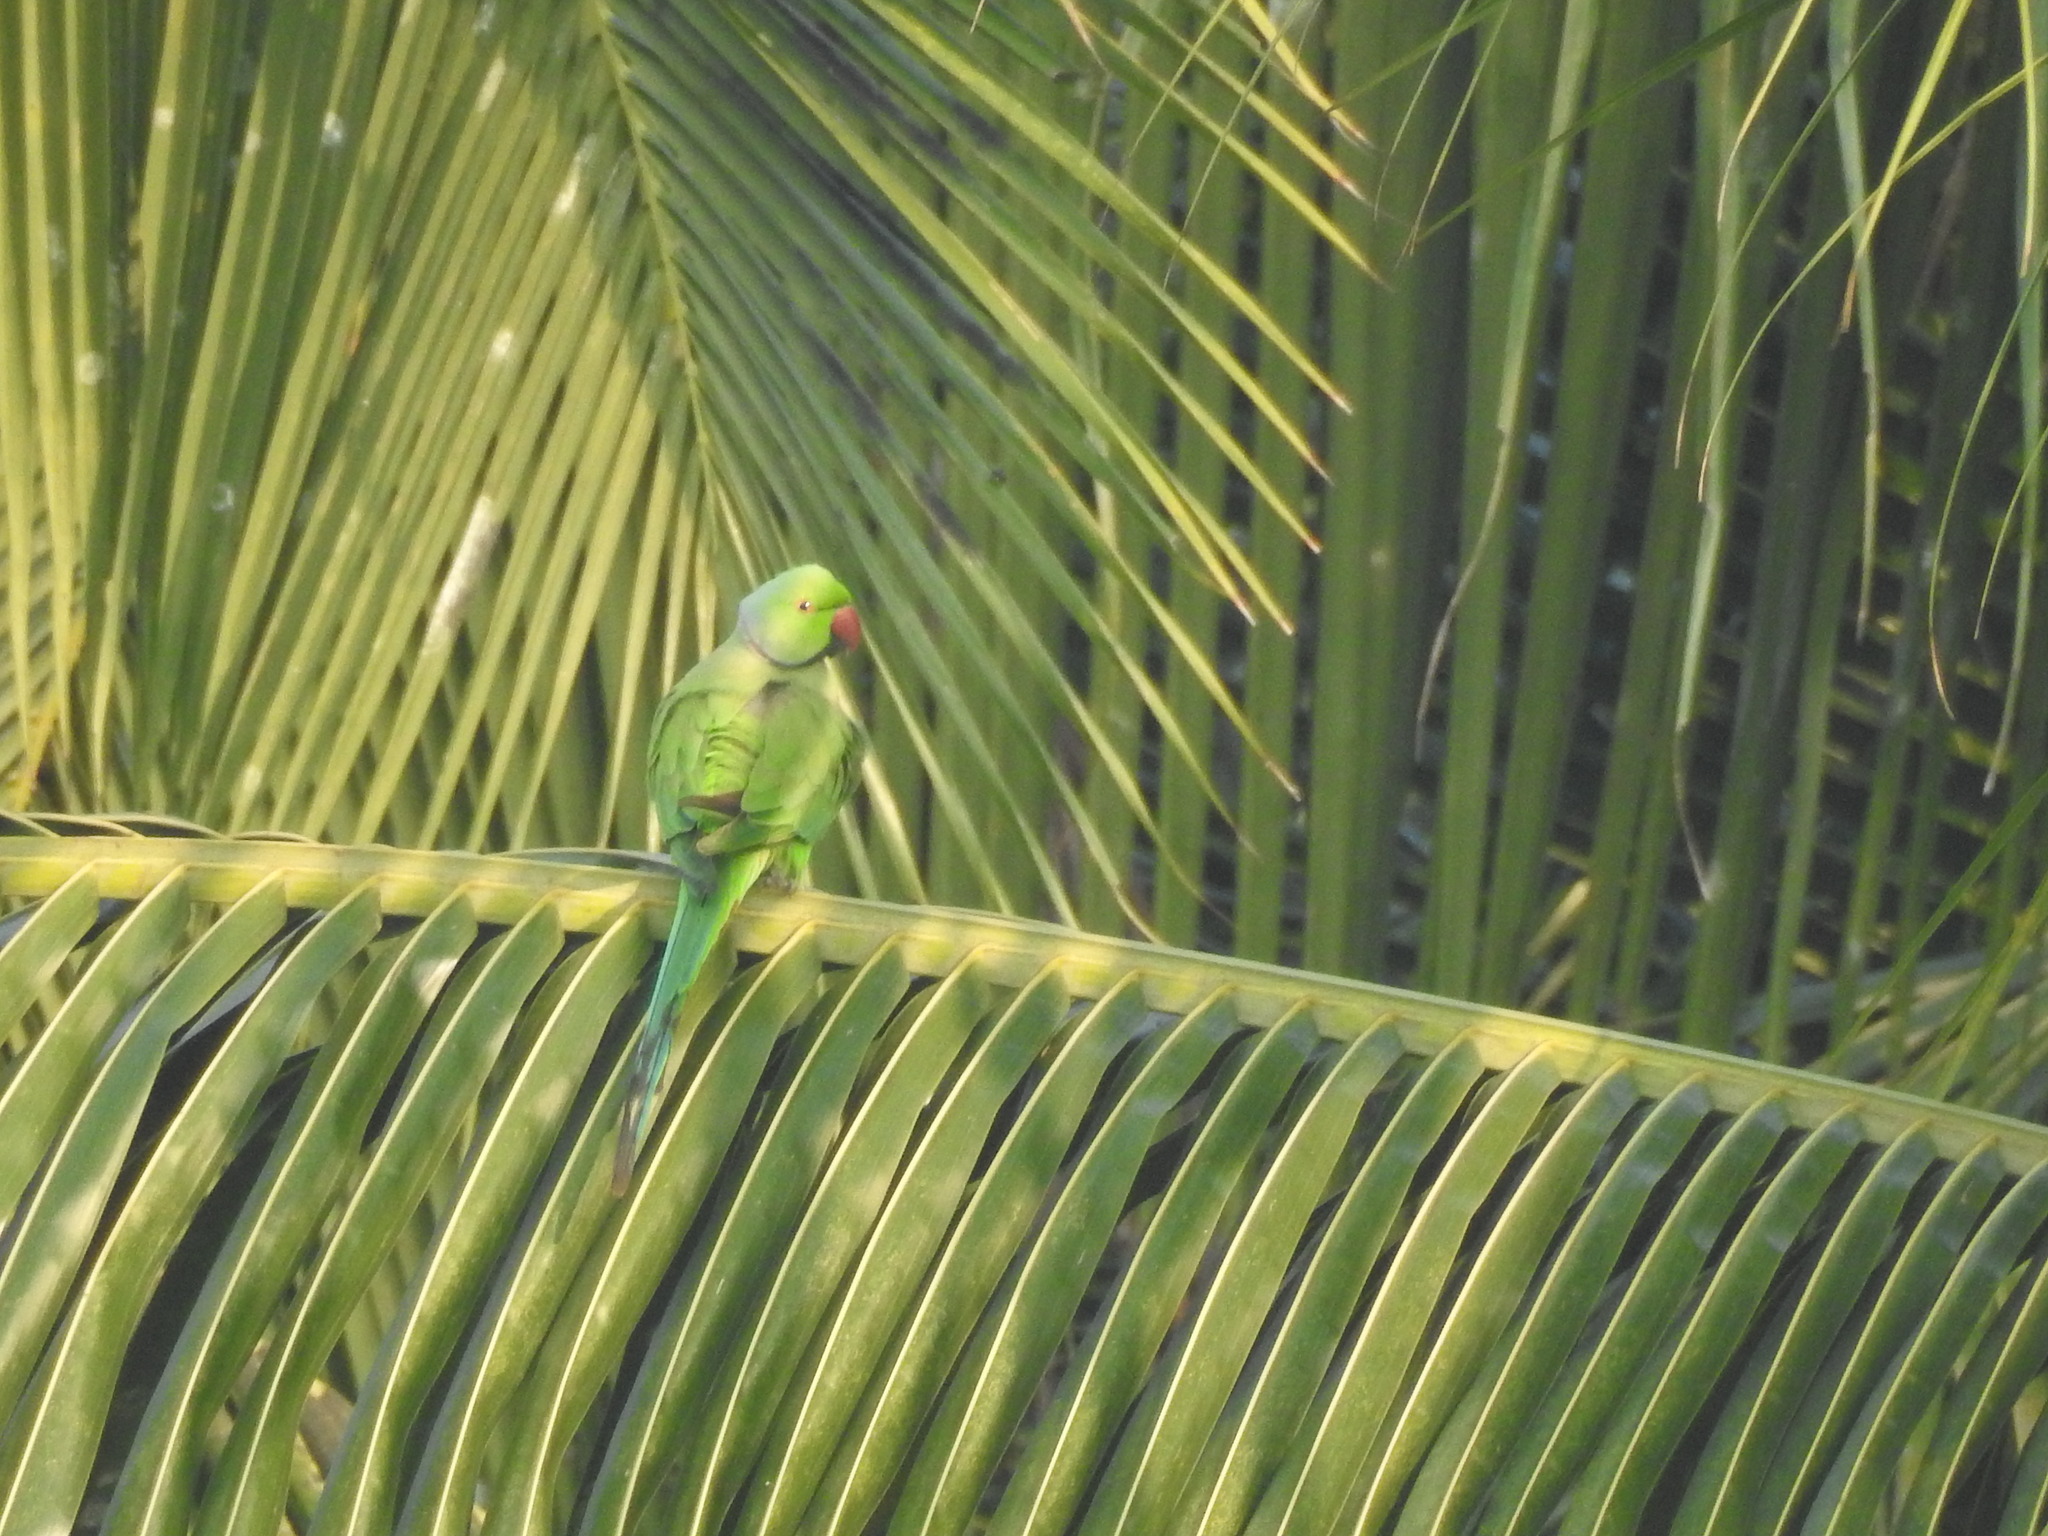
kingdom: Animalia
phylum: Chordata
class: Aves
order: Psittaciformes
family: Psittacidae
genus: Psittacula
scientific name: Psittacula krameri
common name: Rose-ringed parakeet
